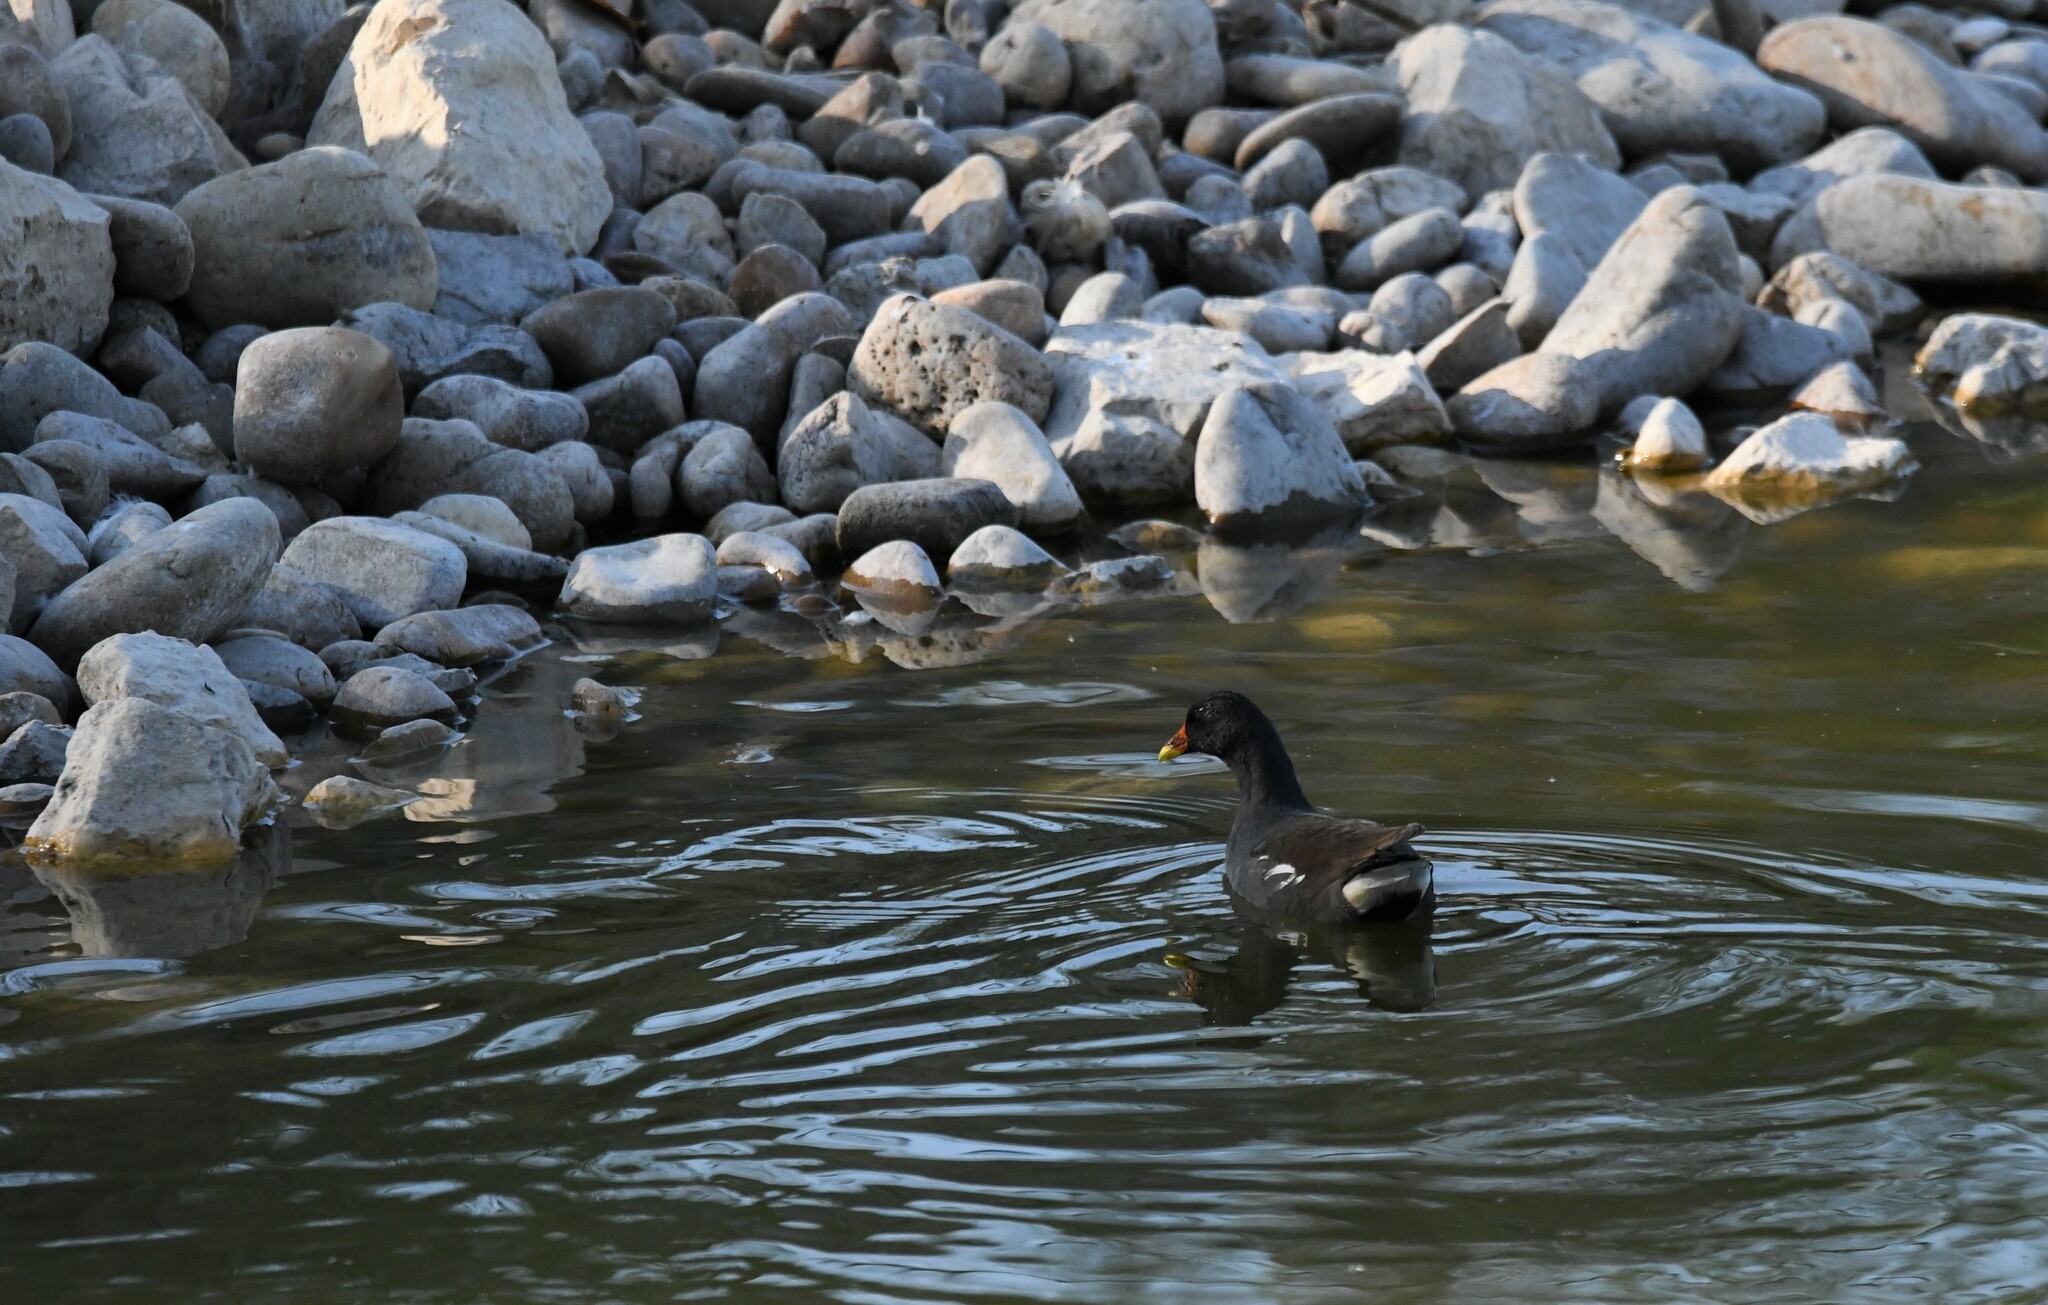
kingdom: Animalia
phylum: Chordata
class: Aves
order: Gruiformes
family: Rallidae
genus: Gallinula
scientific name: Gallinula chloropus
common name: Common moorhen
